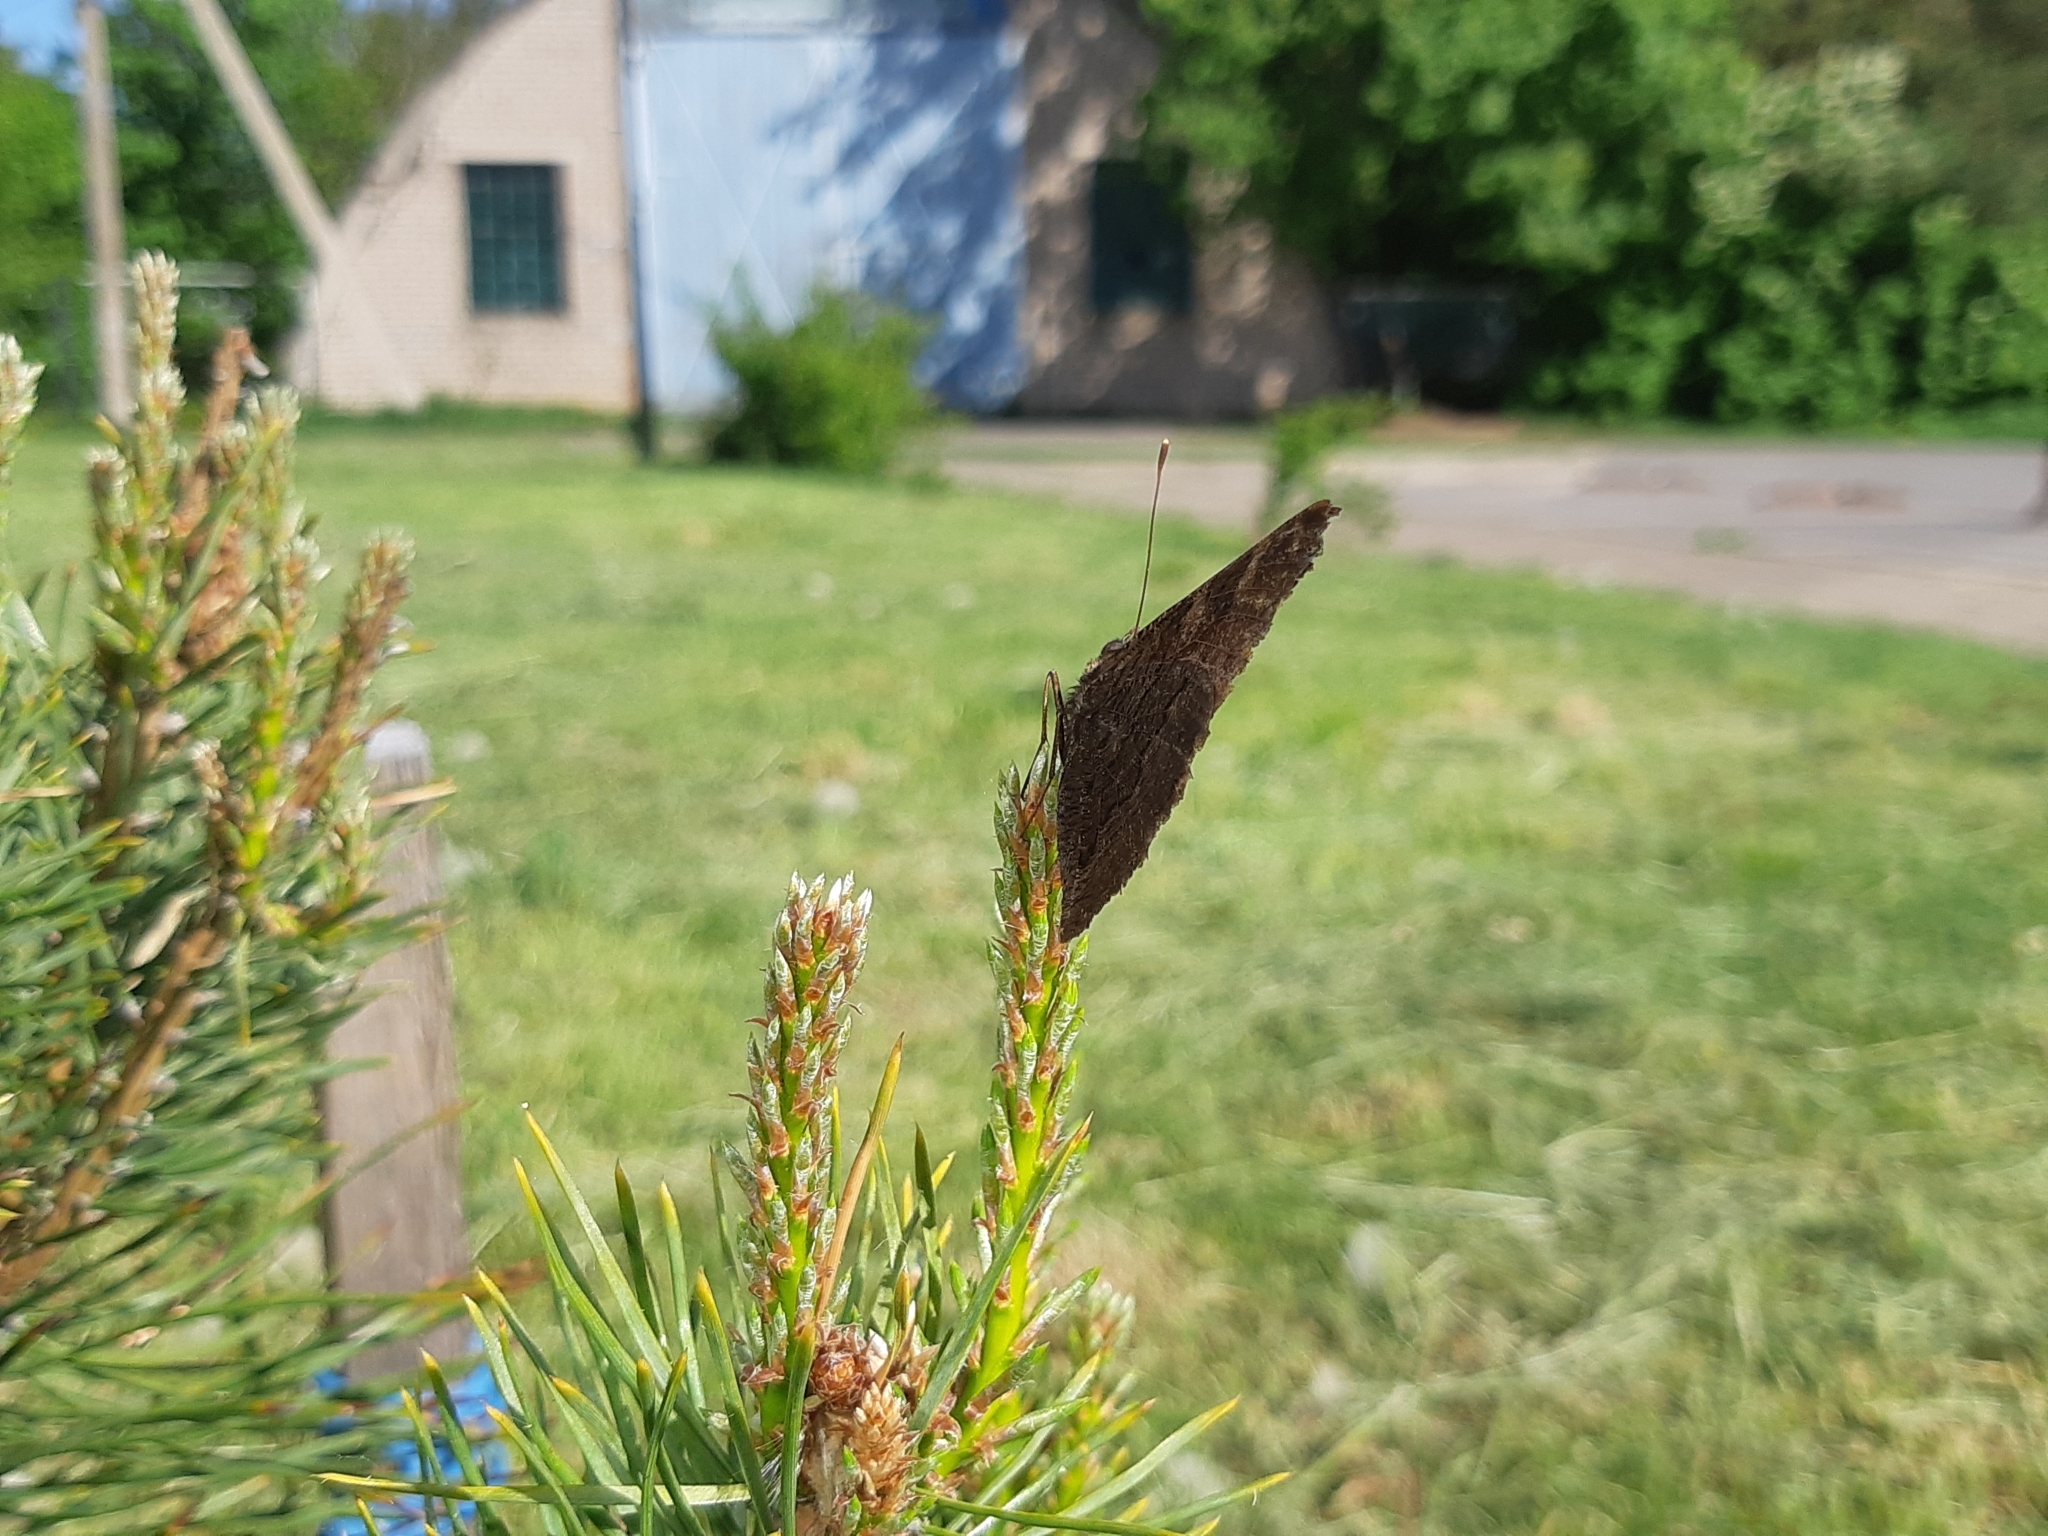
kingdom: Animalia
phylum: Arthropoda
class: Insecta
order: Lepidoptera
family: Nymphalidae
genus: Aglais
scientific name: Aglais io
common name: Peacock
